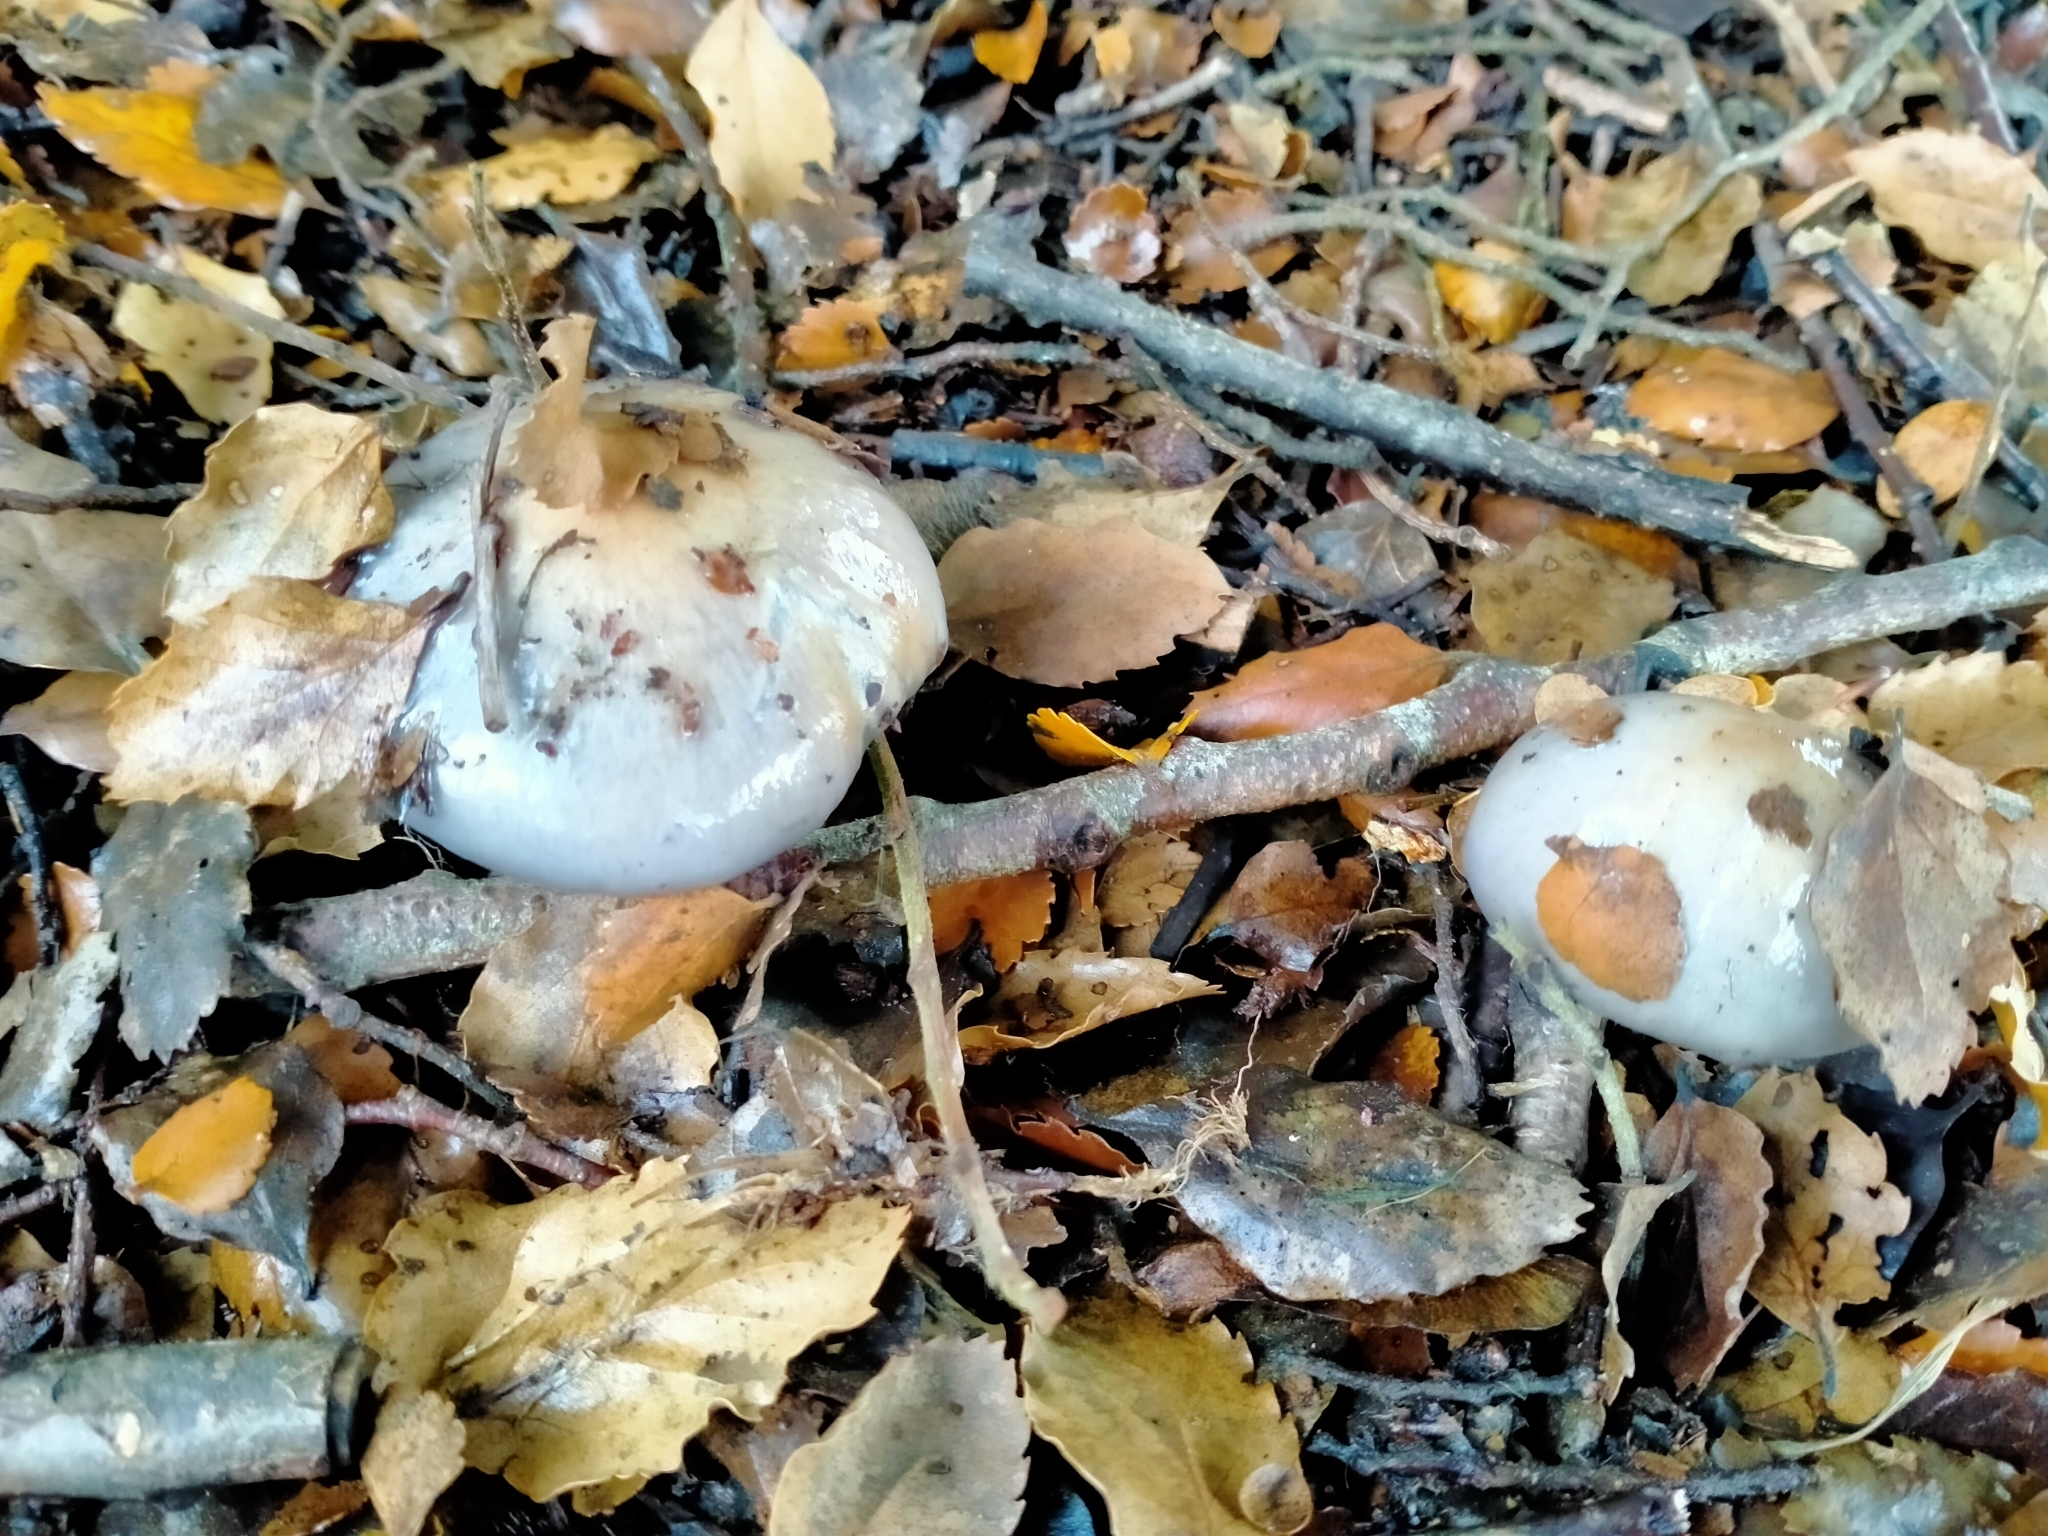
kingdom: Fungi
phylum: Basidiomycota
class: Agaricomycetes
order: Agaricales
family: Cortinariaceae
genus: Cortinarius
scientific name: Cortinarius taylorianus
